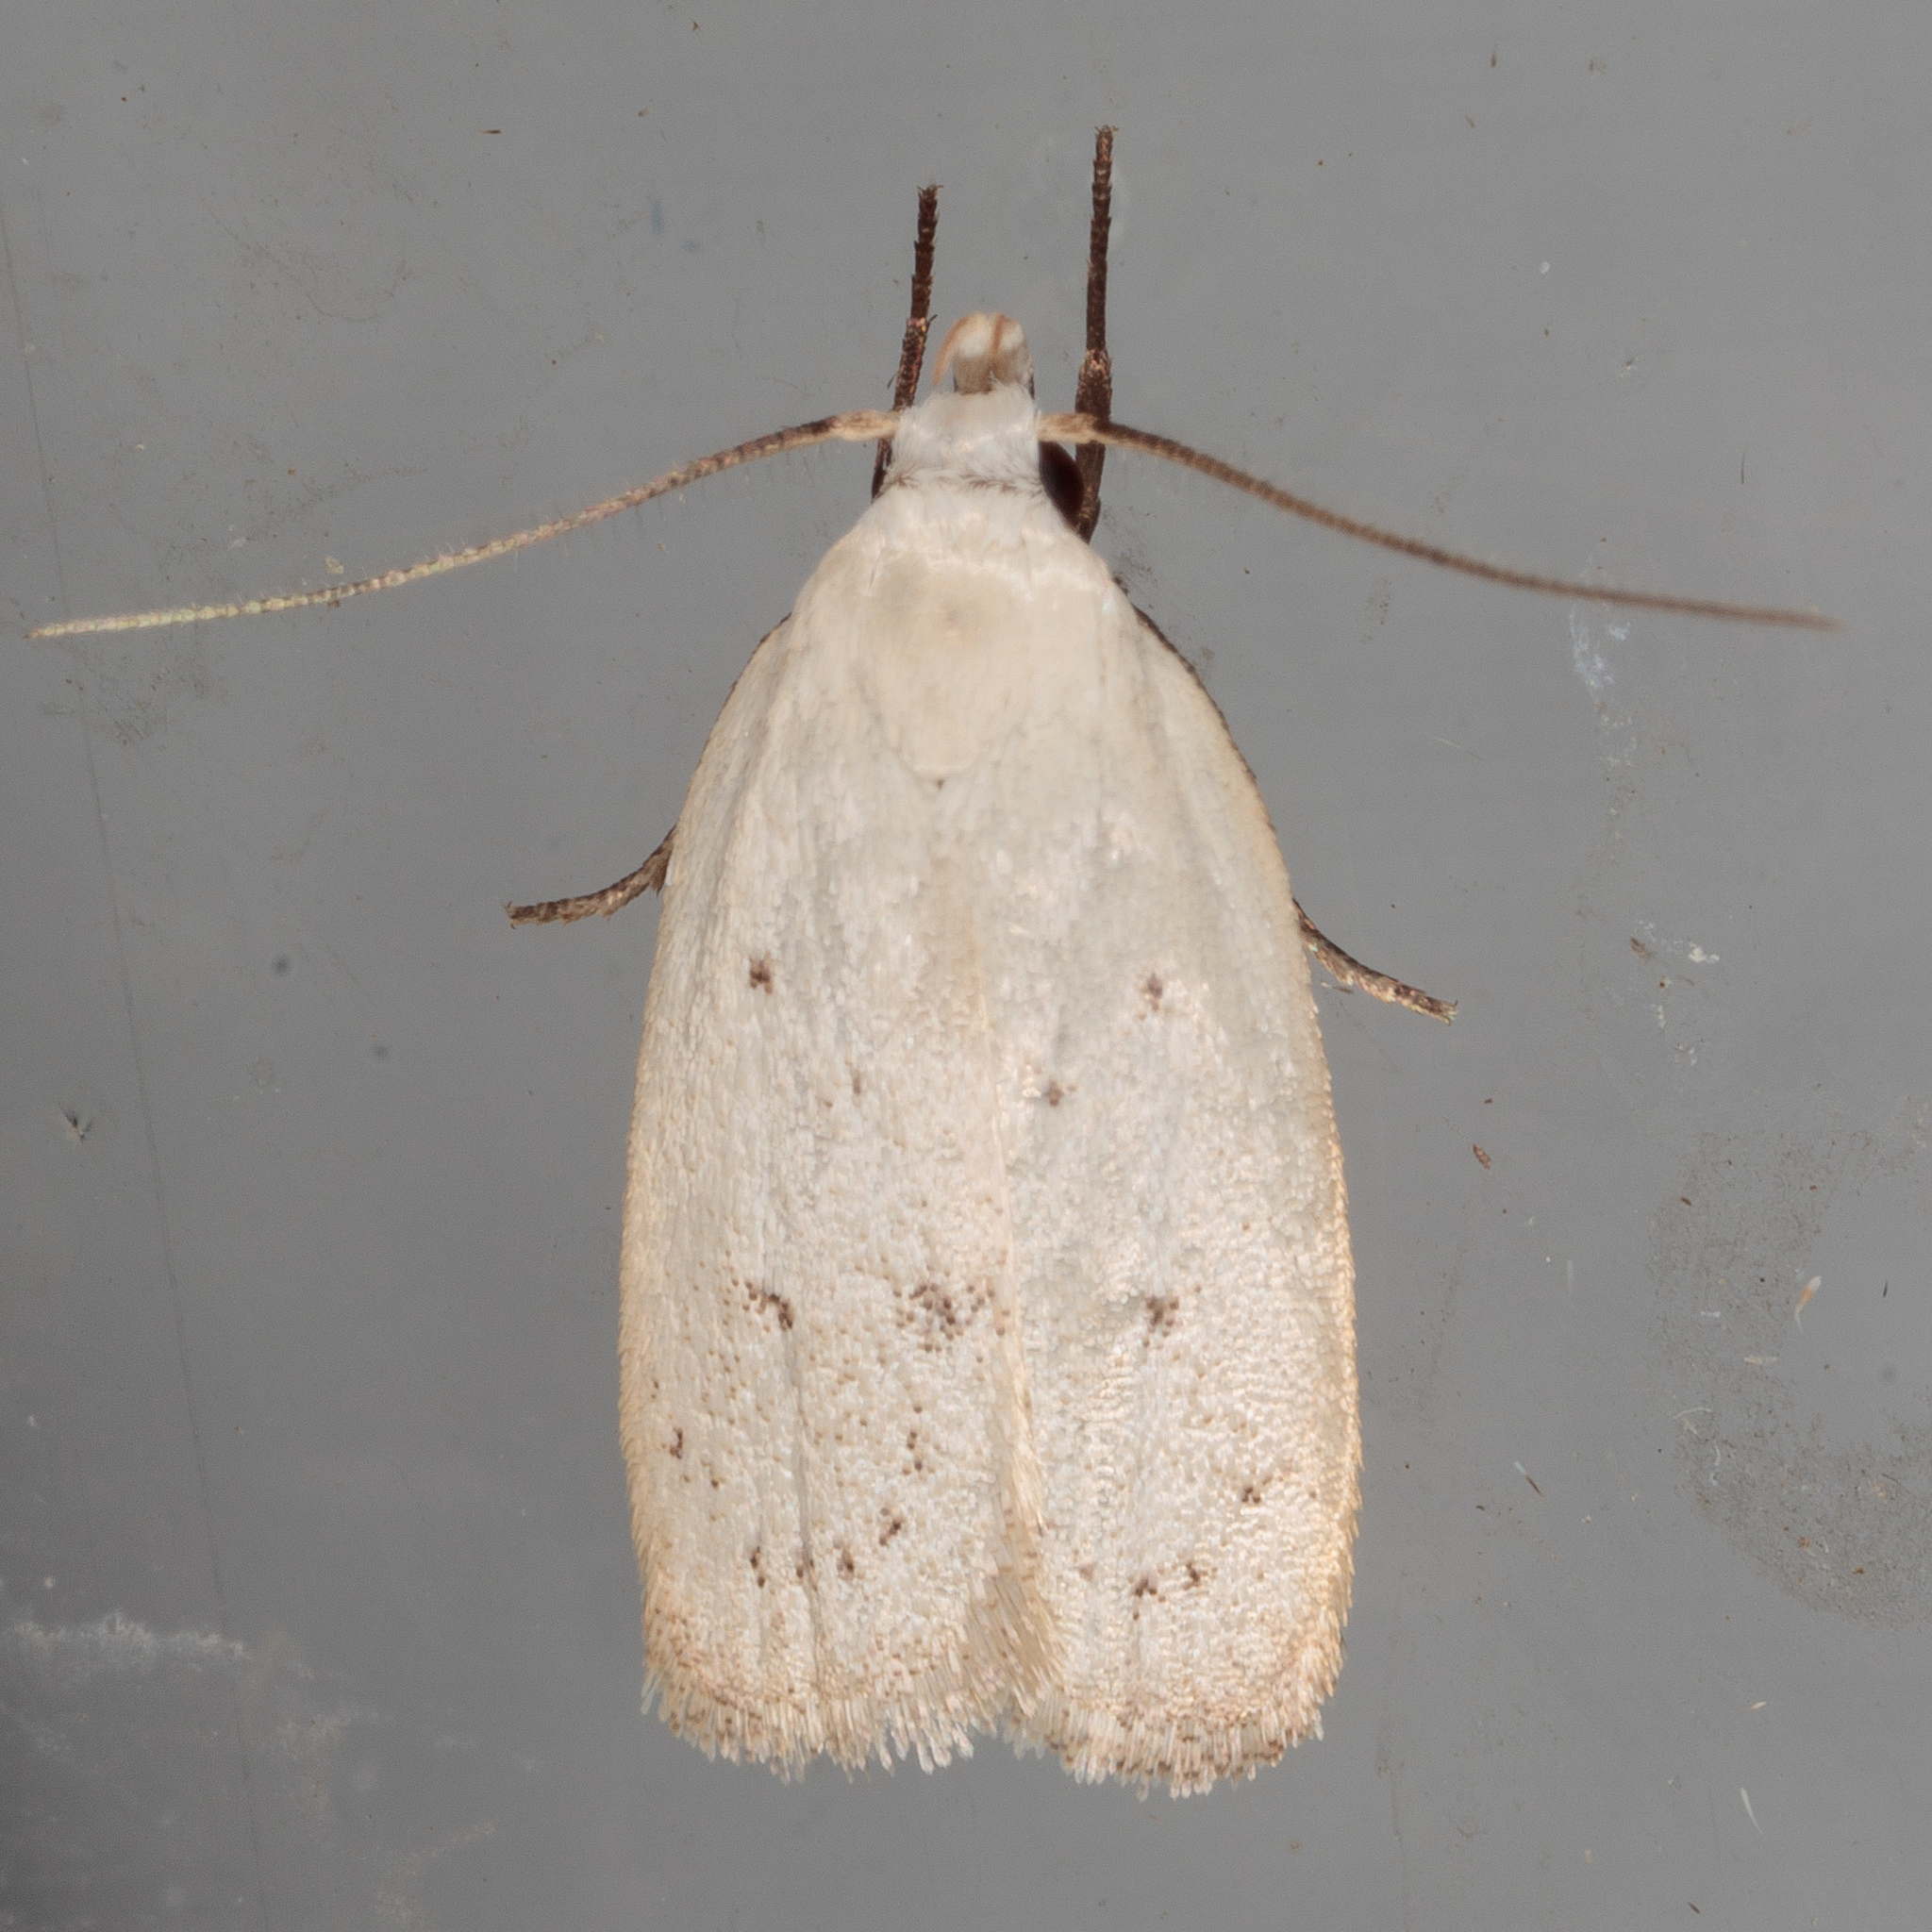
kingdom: Animalia
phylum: Arthropoda
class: Insecta
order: Lepidoptera
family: Oecophoridae
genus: Inga
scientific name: Inga cretacea
